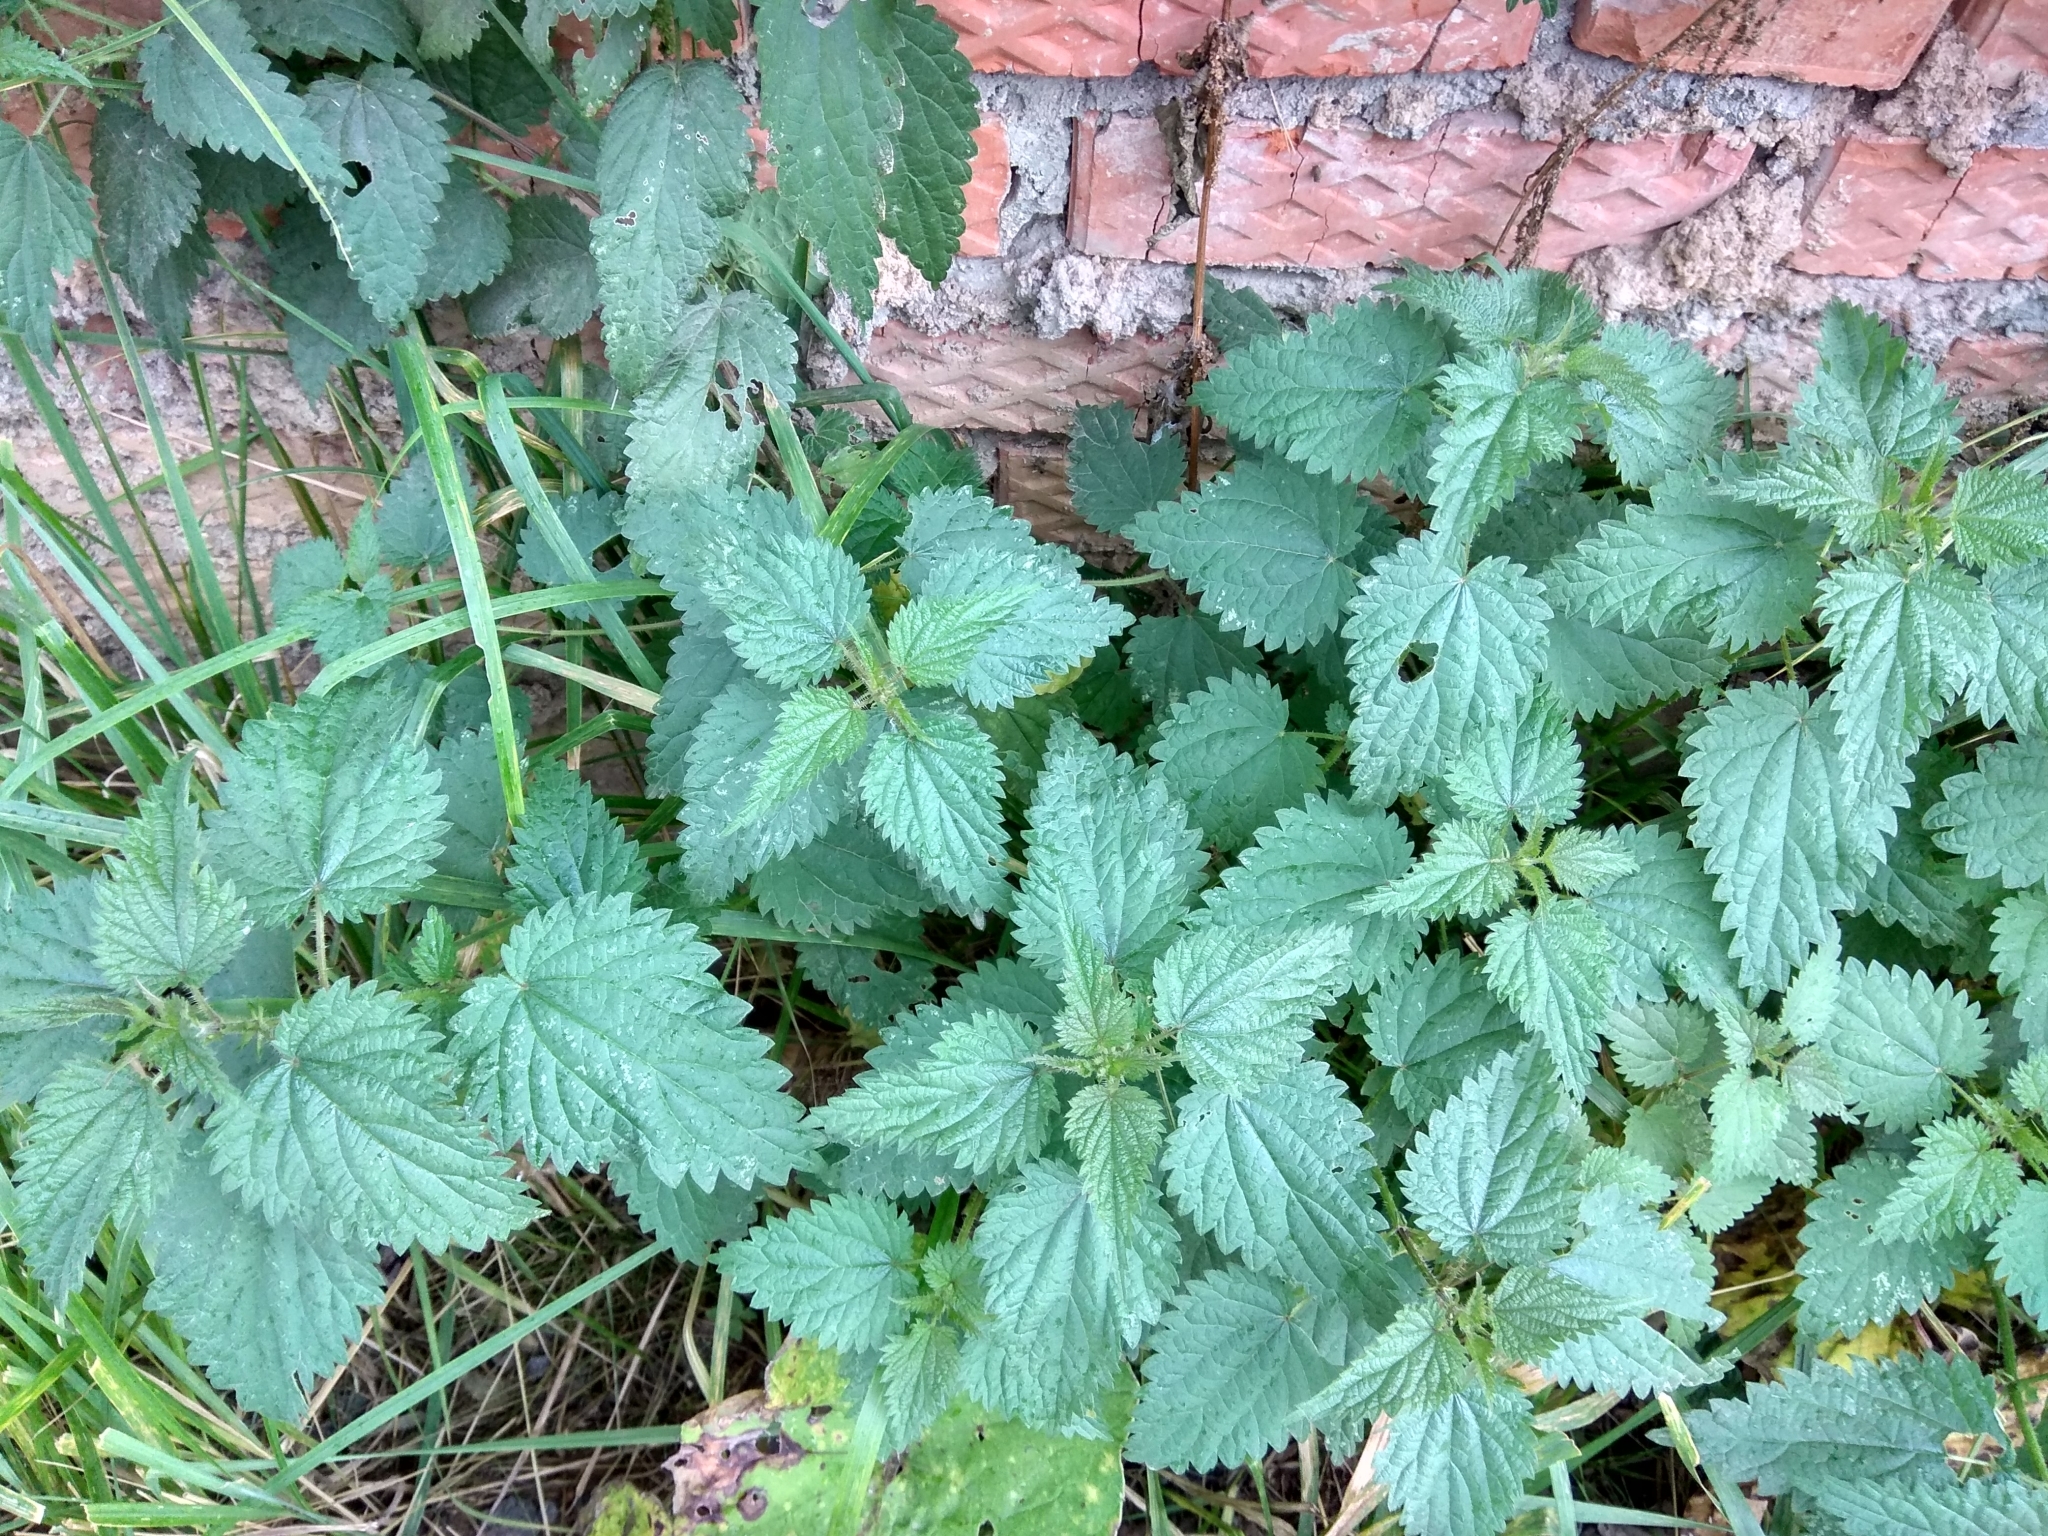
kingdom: Plantae
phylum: Tracheophyta
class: Magnoliopsida
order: Rosales
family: Urticaceae
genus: Urtica
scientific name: Urtica dioica
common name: Common nettle
